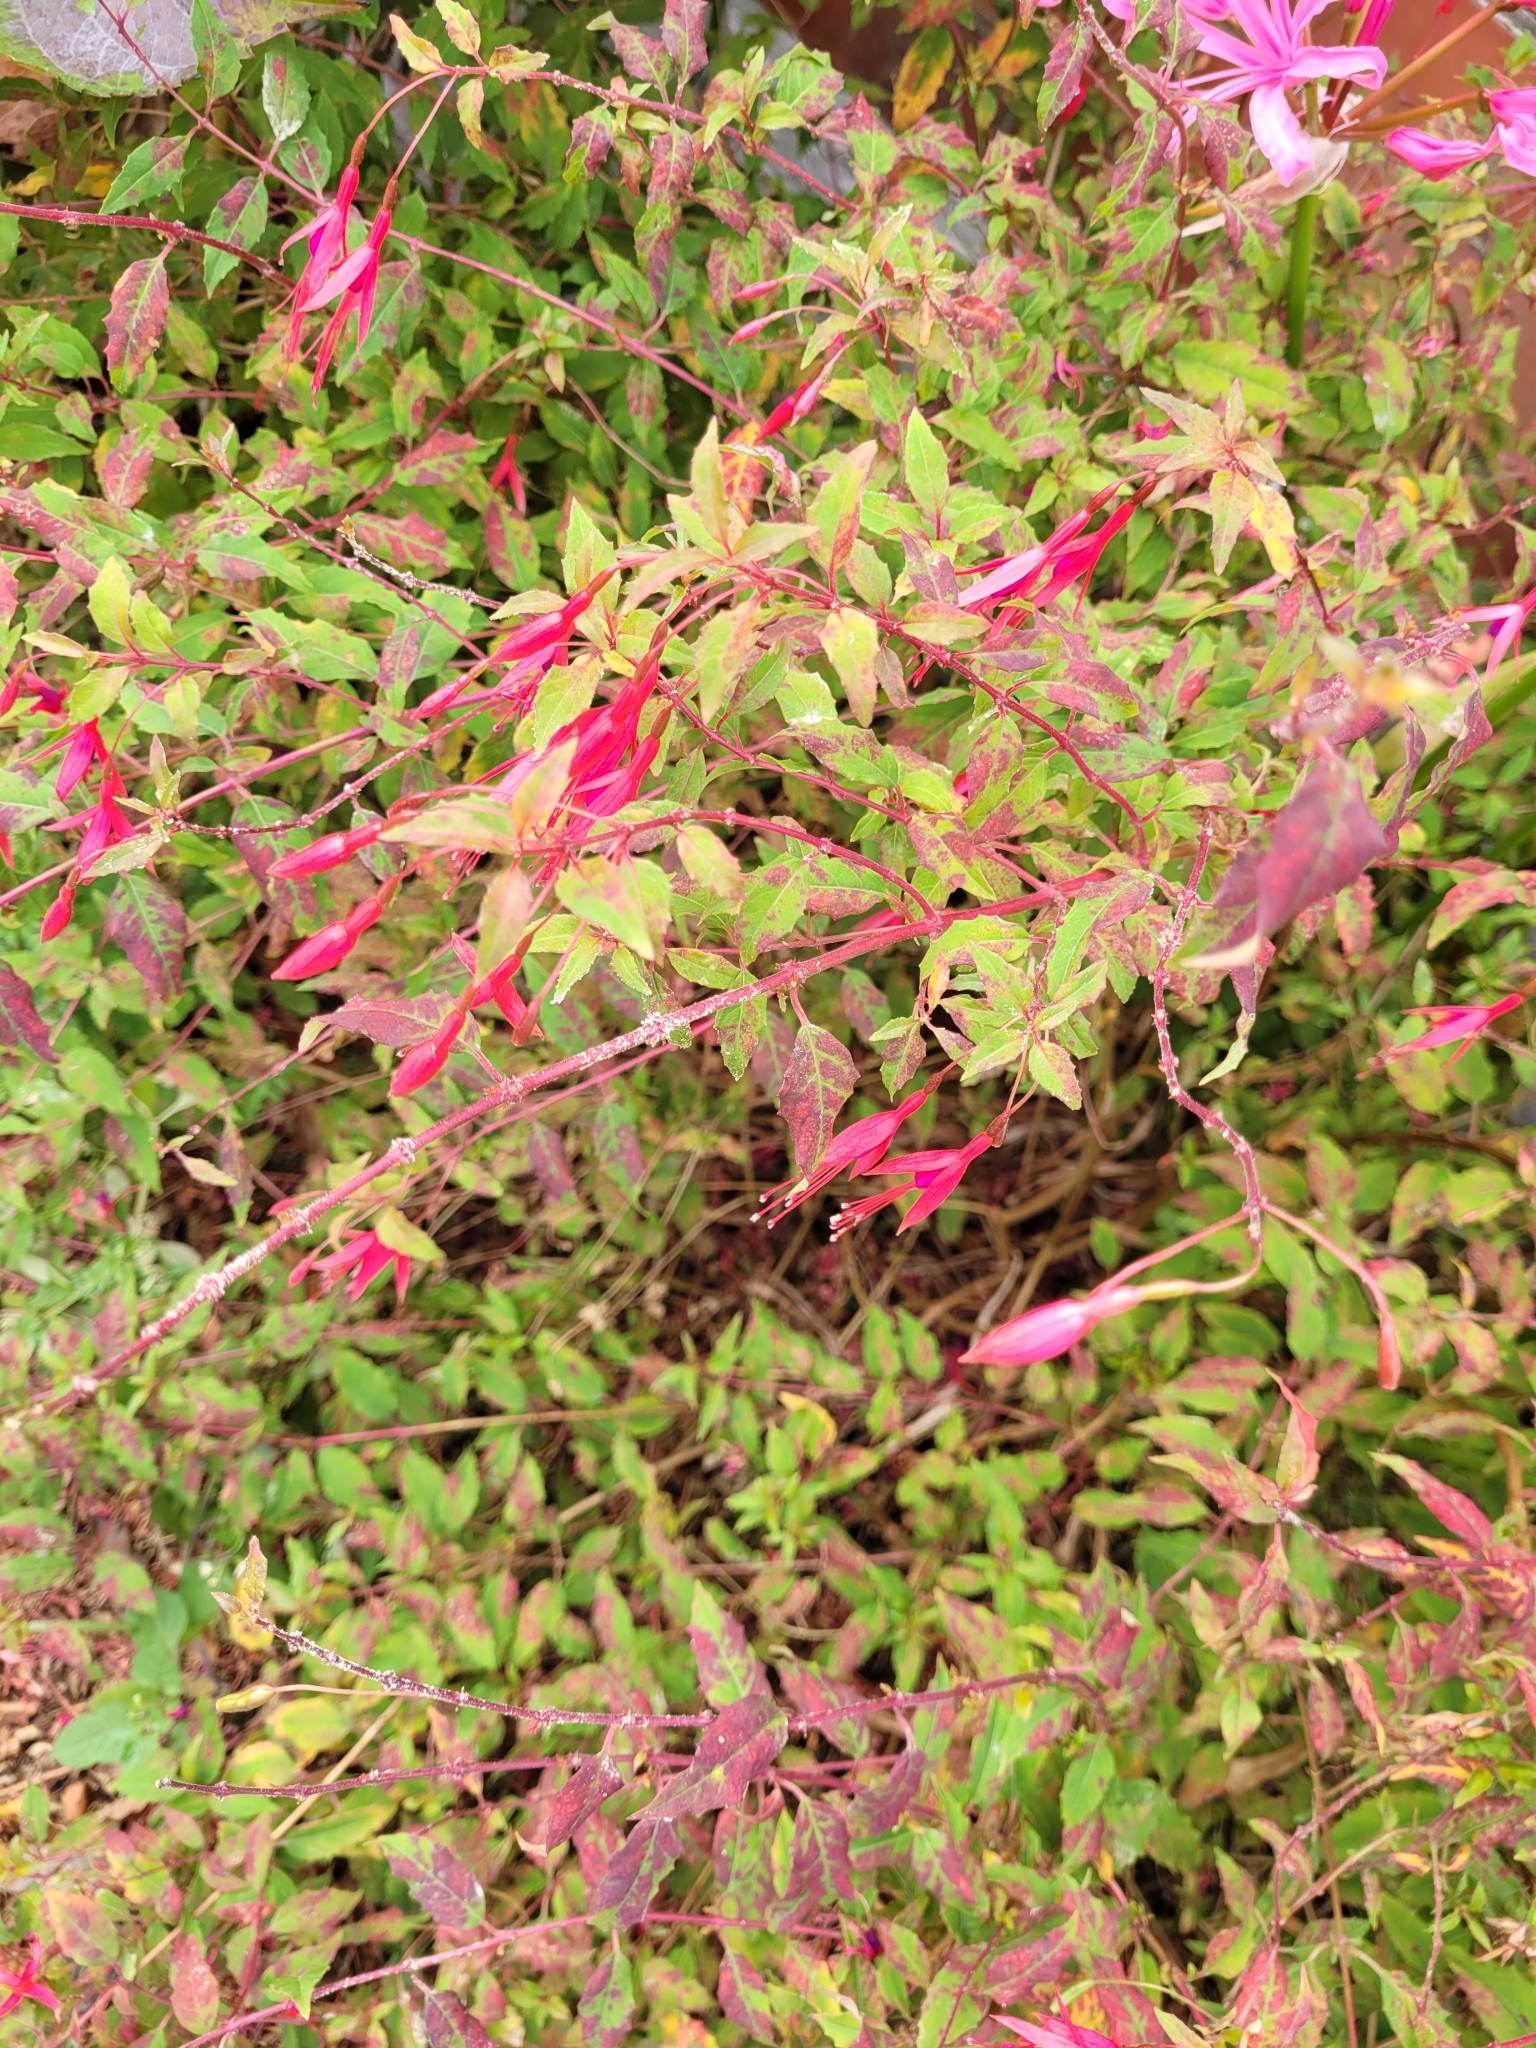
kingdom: Plantae
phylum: Tracheophyta
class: Magnoliopsida
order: Myrtales
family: Onagraceae
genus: Fuchsia
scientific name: Fuchsia magellanica
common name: Hardy fuchsia
